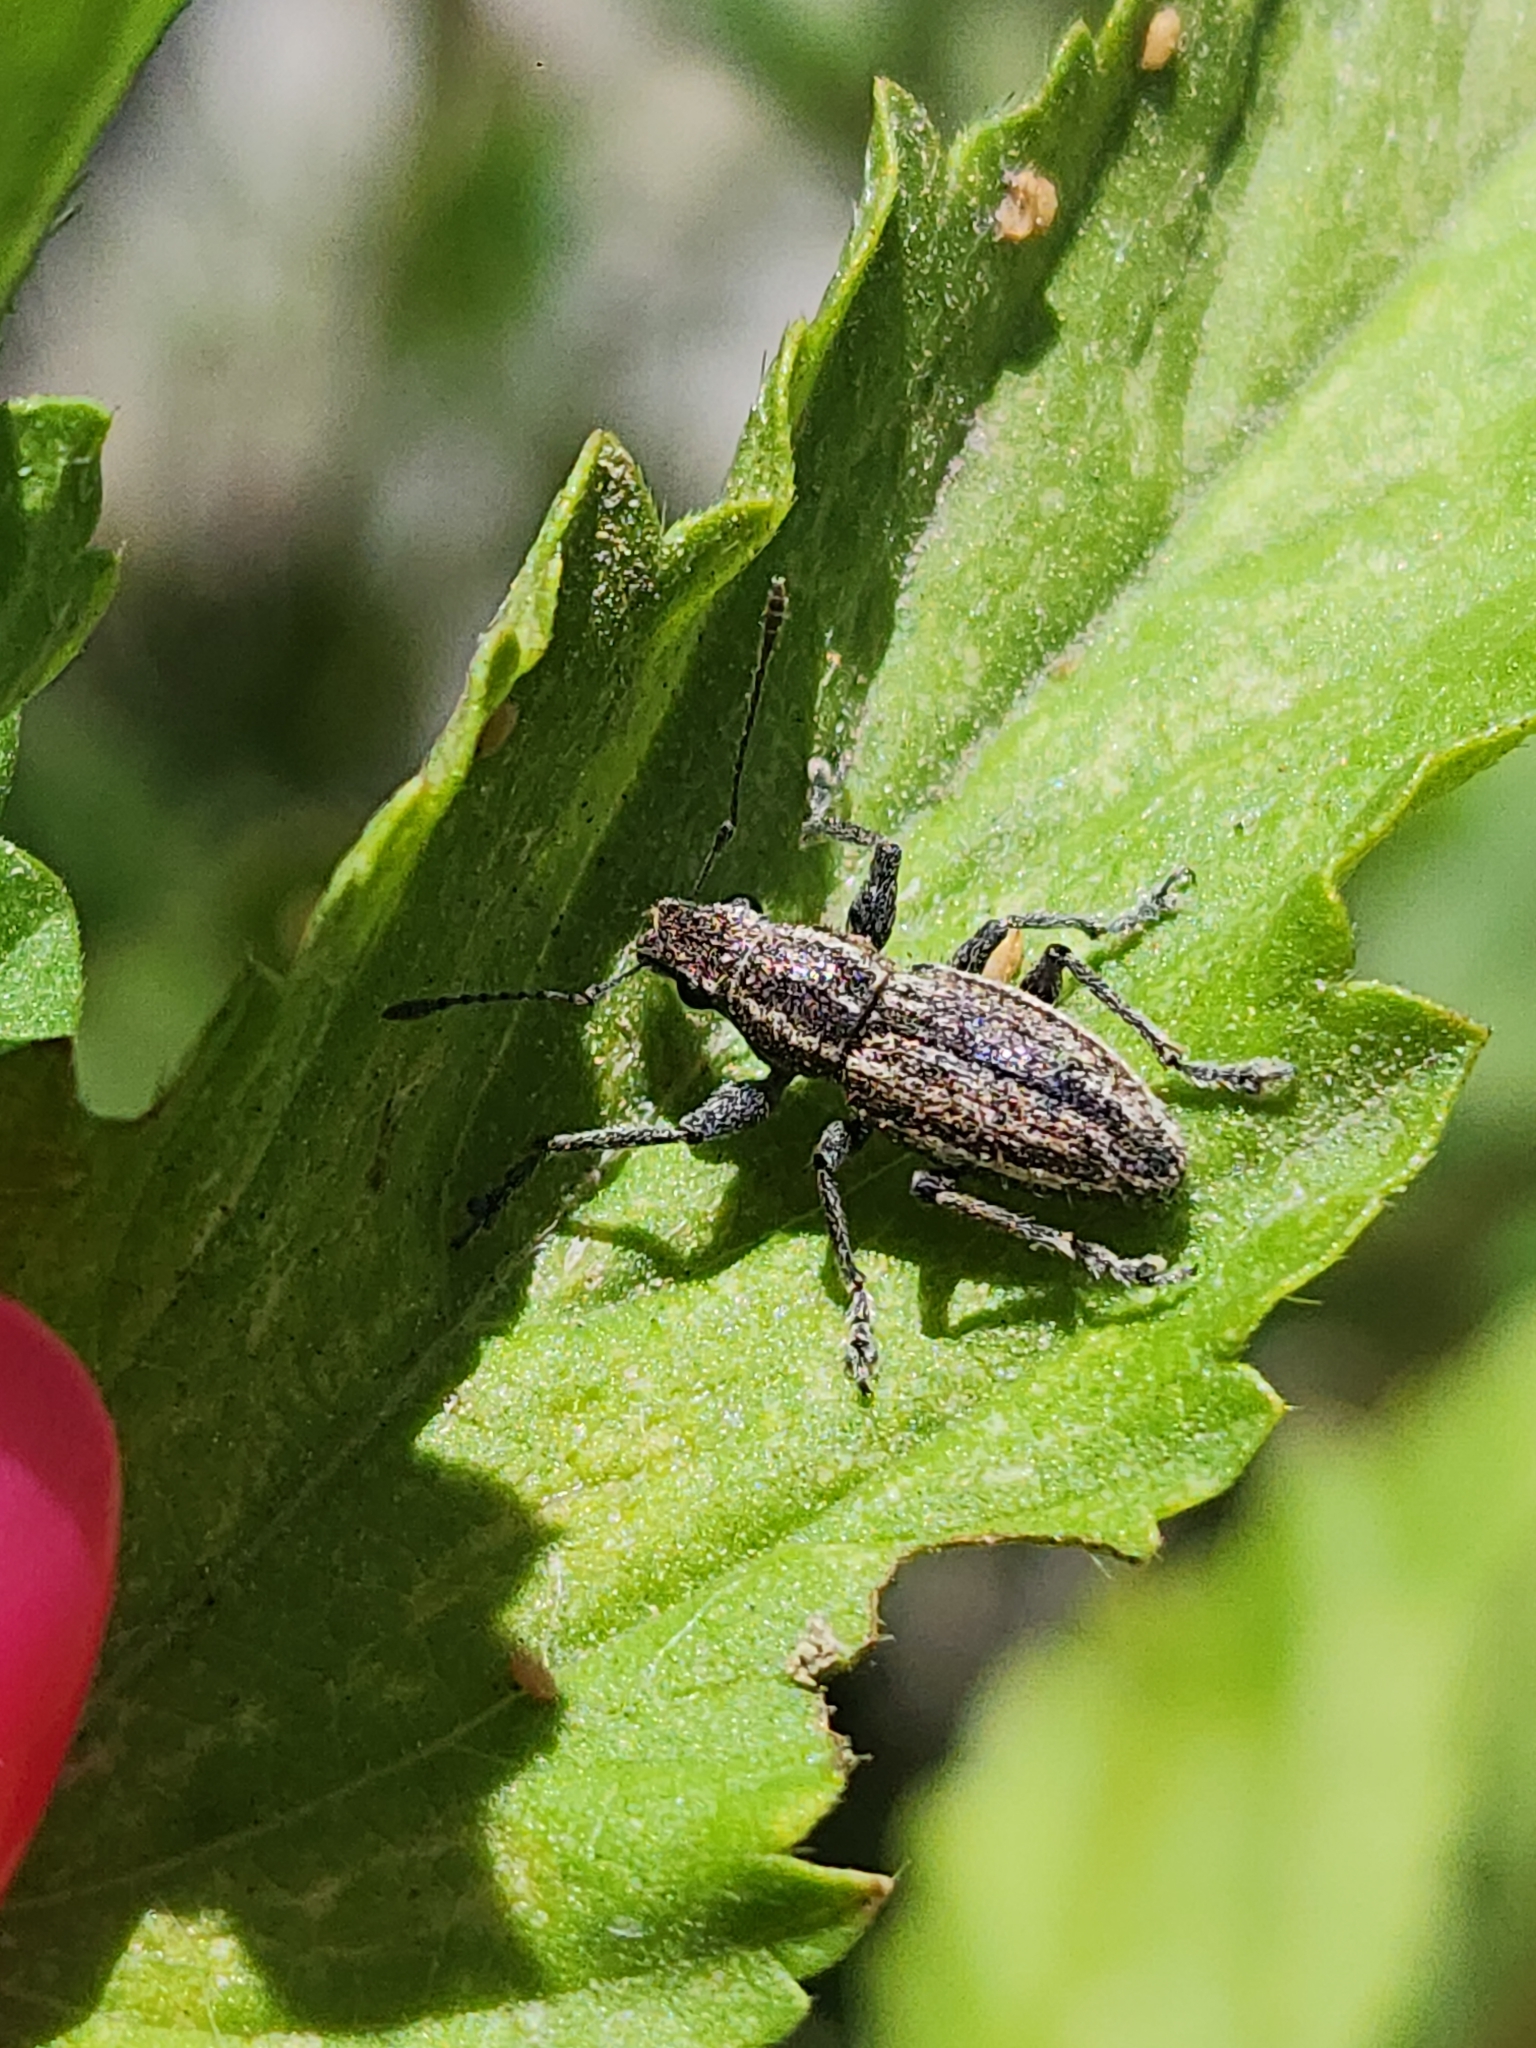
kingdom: Animalia
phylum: Arthropoda
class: Insecta
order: Coleoptera
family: Curculionidae
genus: Naupactus
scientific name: Naupactus tucumanensis
